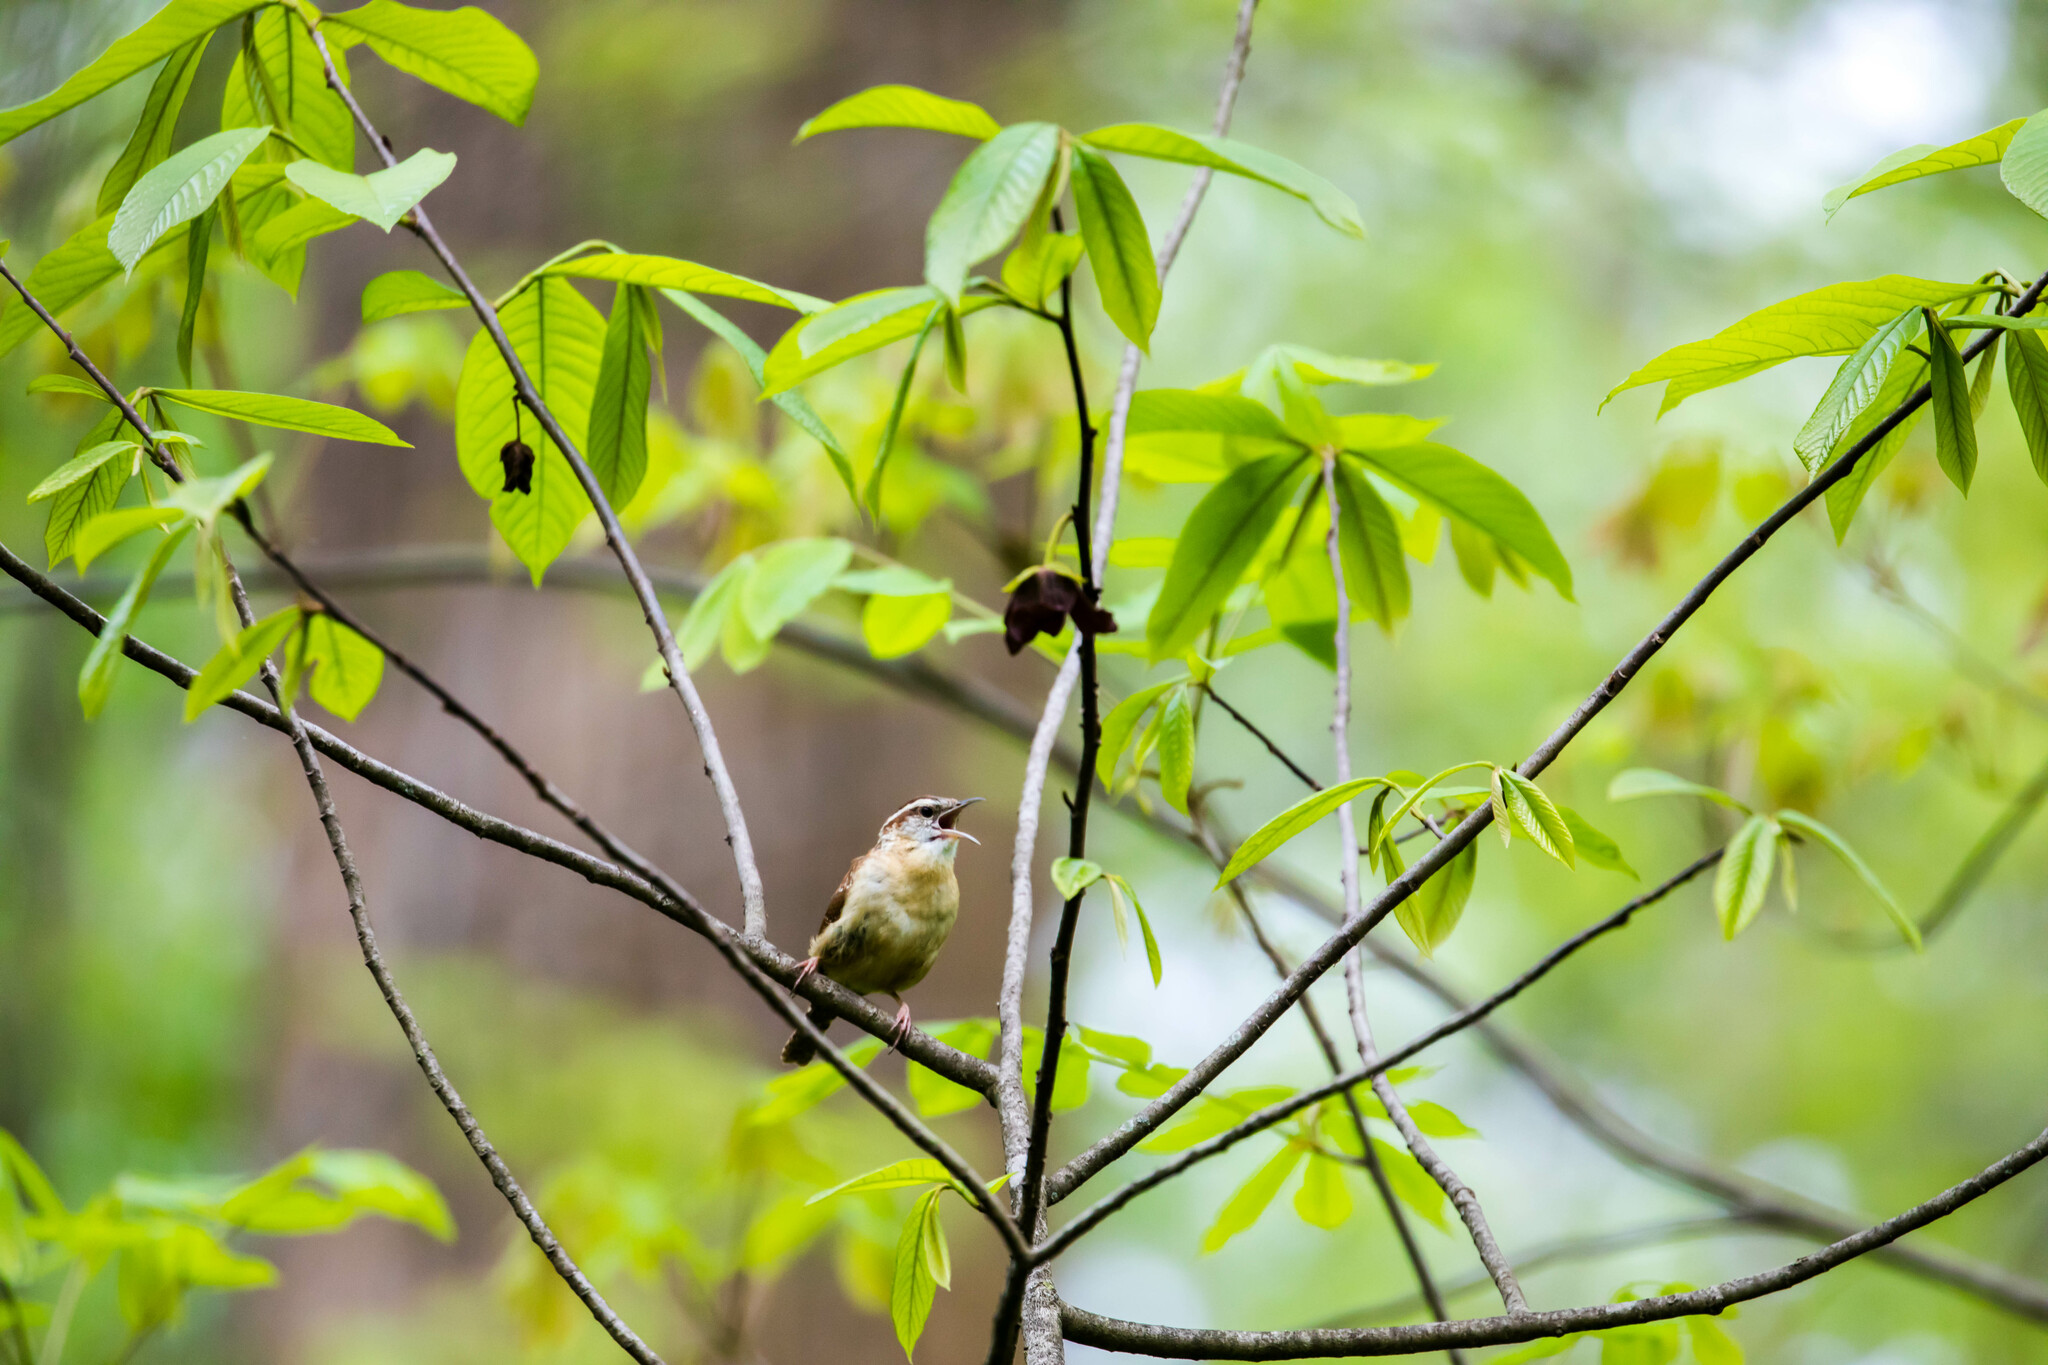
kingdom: Animalia
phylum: Chordata
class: Aves
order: Passeriformes
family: Troglodytidae
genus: Thryothorus
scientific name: Thryothorus ludovicianus
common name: Carolina wren
